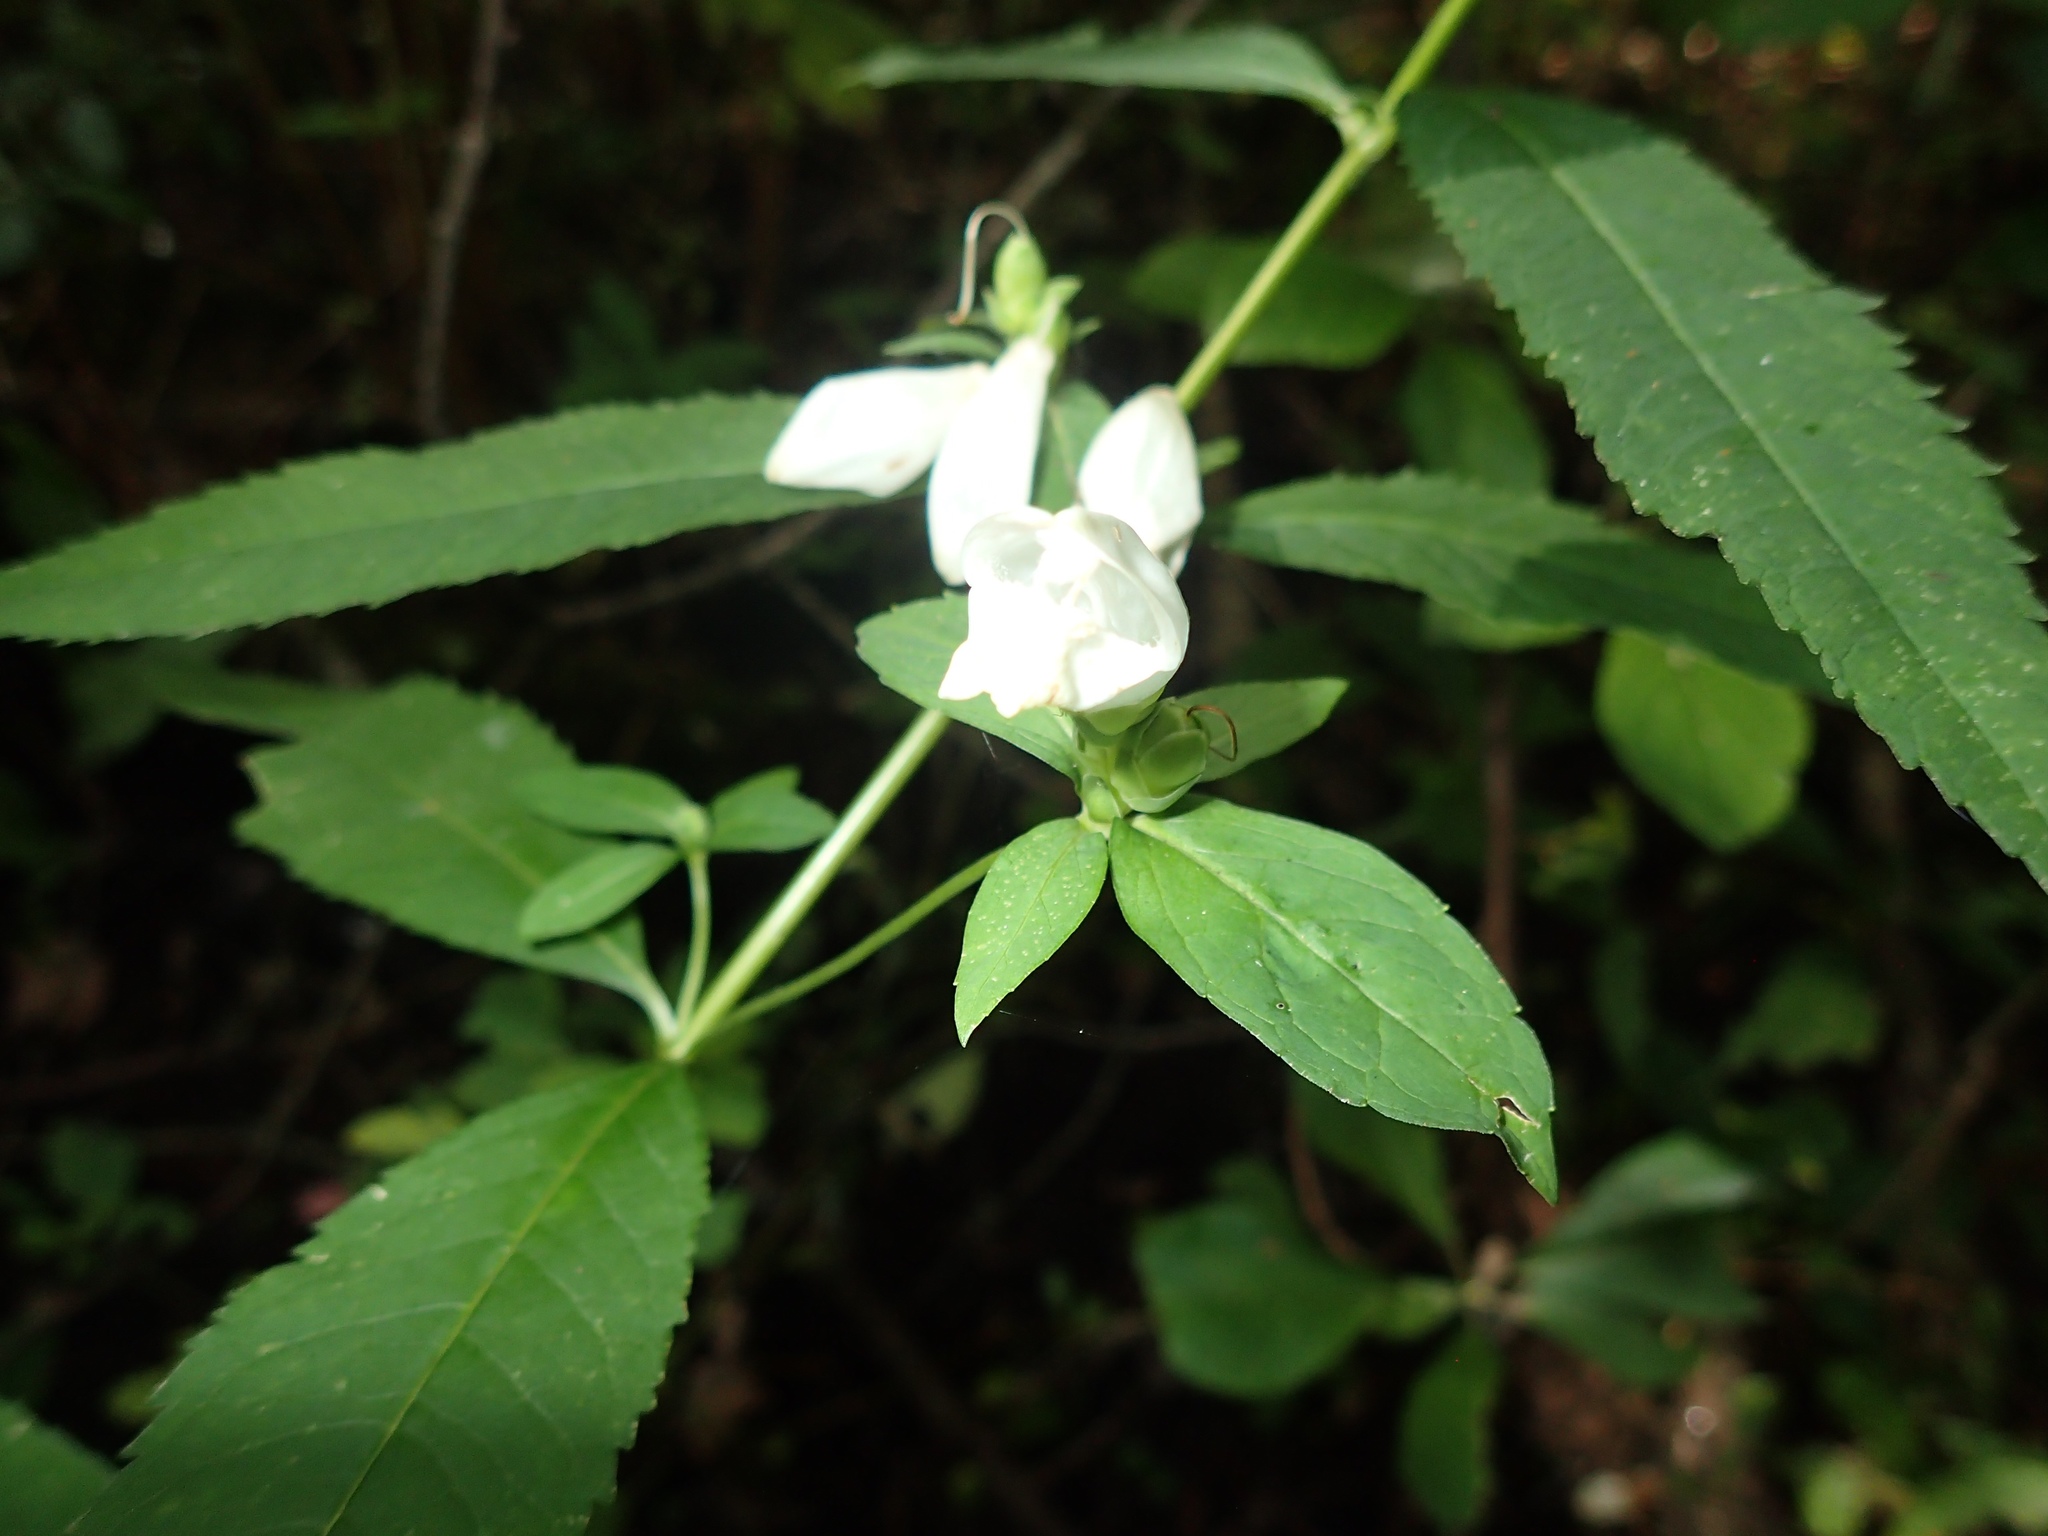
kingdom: Plantae
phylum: Tracheophyta
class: Magnoliopsida
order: Lamiales
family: Plantaginaceae
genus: Chelone
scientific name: Chelone glabra
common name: Snakehead
